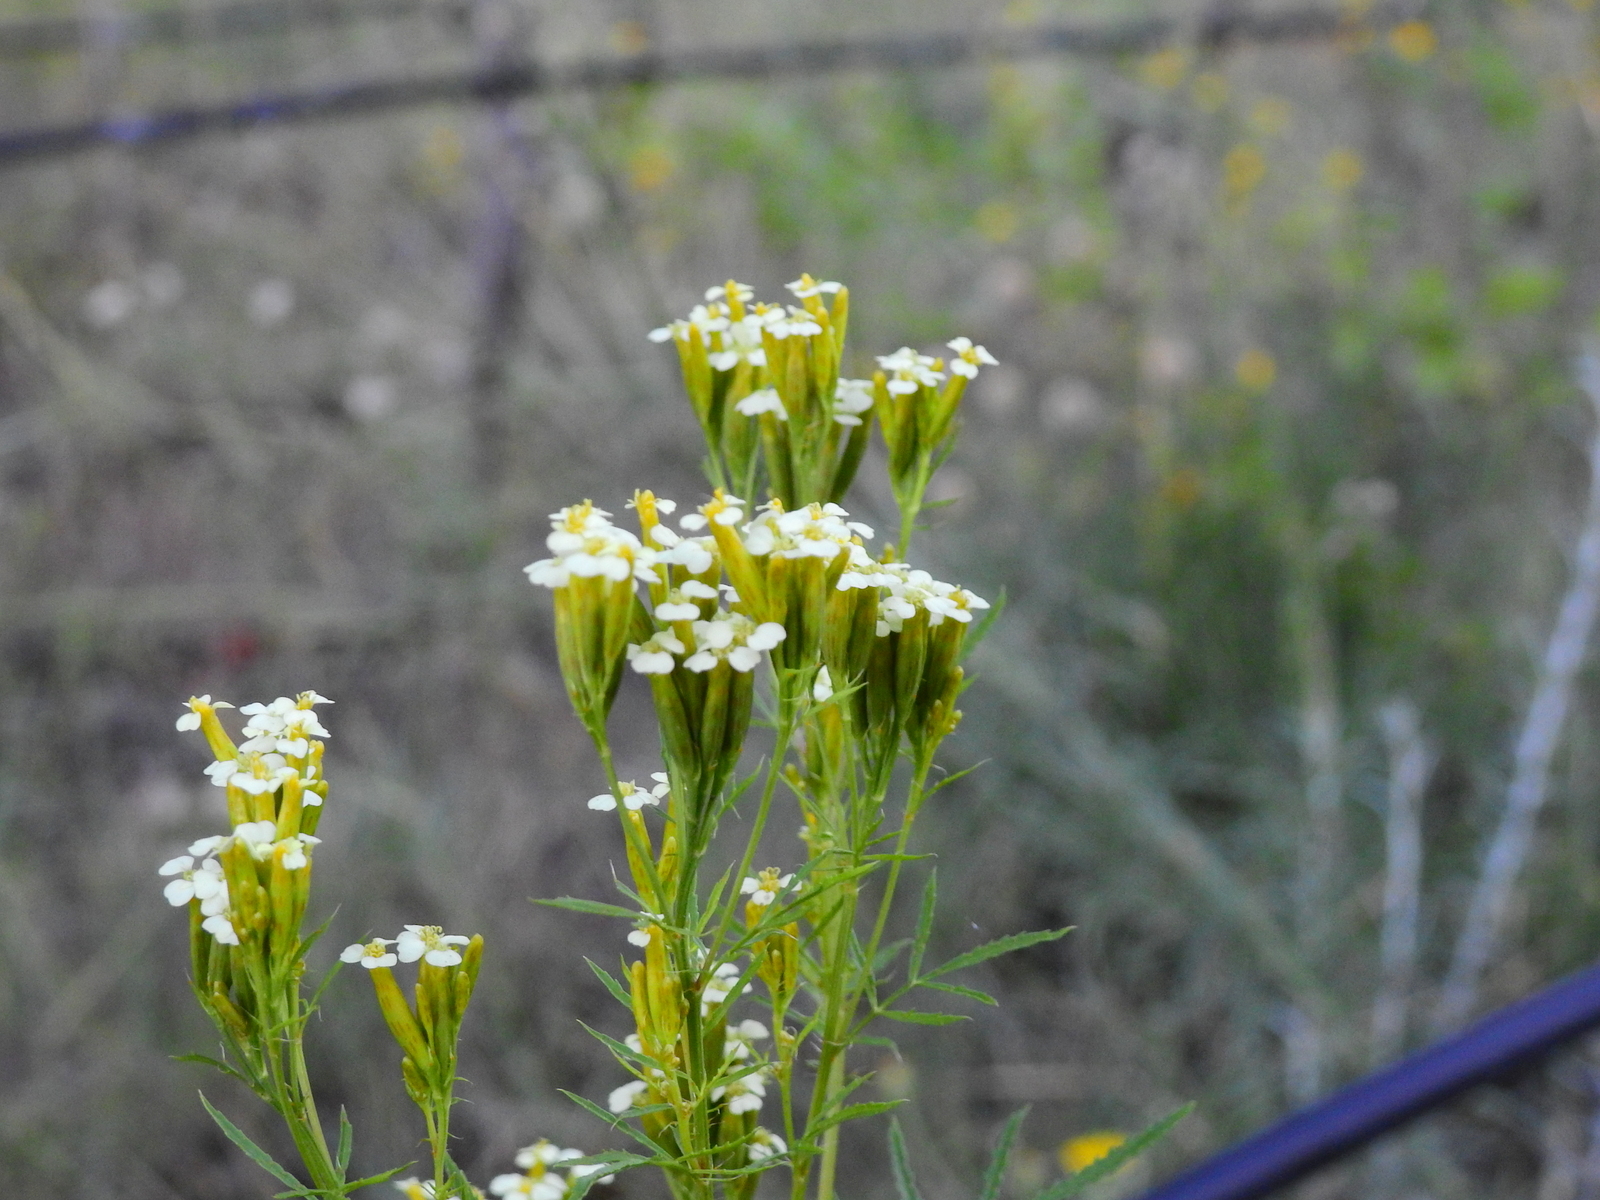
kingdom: Plantae
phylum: Tracheophyta
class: Magnoliopsida
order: Asterales
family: Asteraceae
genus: Tagetes
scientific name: Tagetes minuta
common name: Muster john henry
